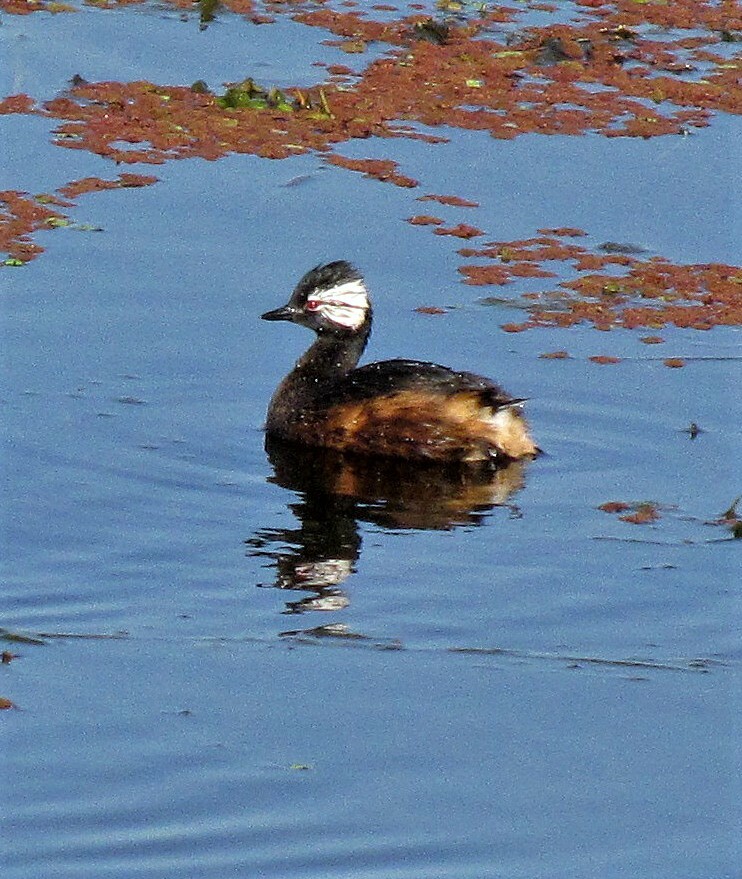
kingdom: Animalia
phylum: Chordata
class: Aves
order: Podicipediformes
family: Podicipedidae
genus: Rollandia
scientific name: Rollandia rolland
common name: White-tufted grebe
